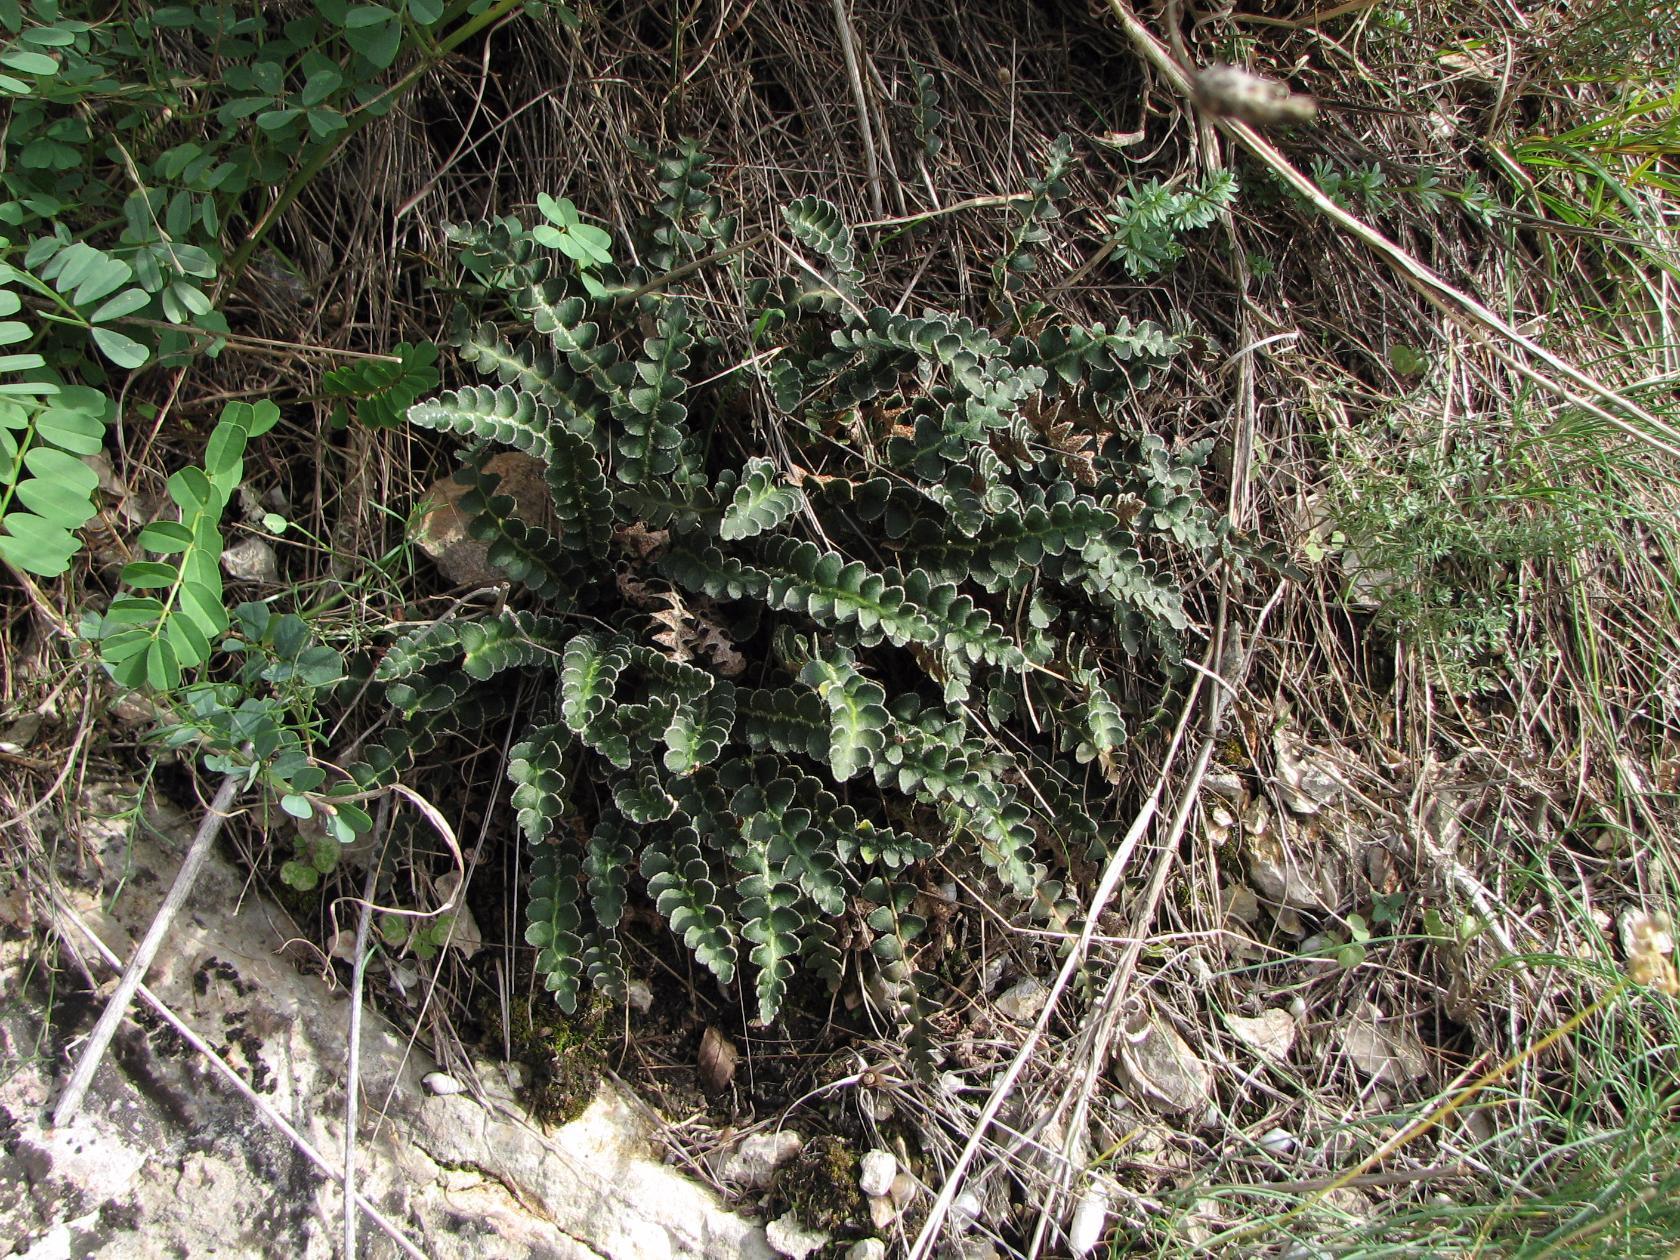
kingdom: Plantae
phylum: Tracheophyta
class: Polypodiopsida
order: Polypodiales
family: Aspleniaceae
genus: Asplenium
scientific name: Asplenium ceterach
